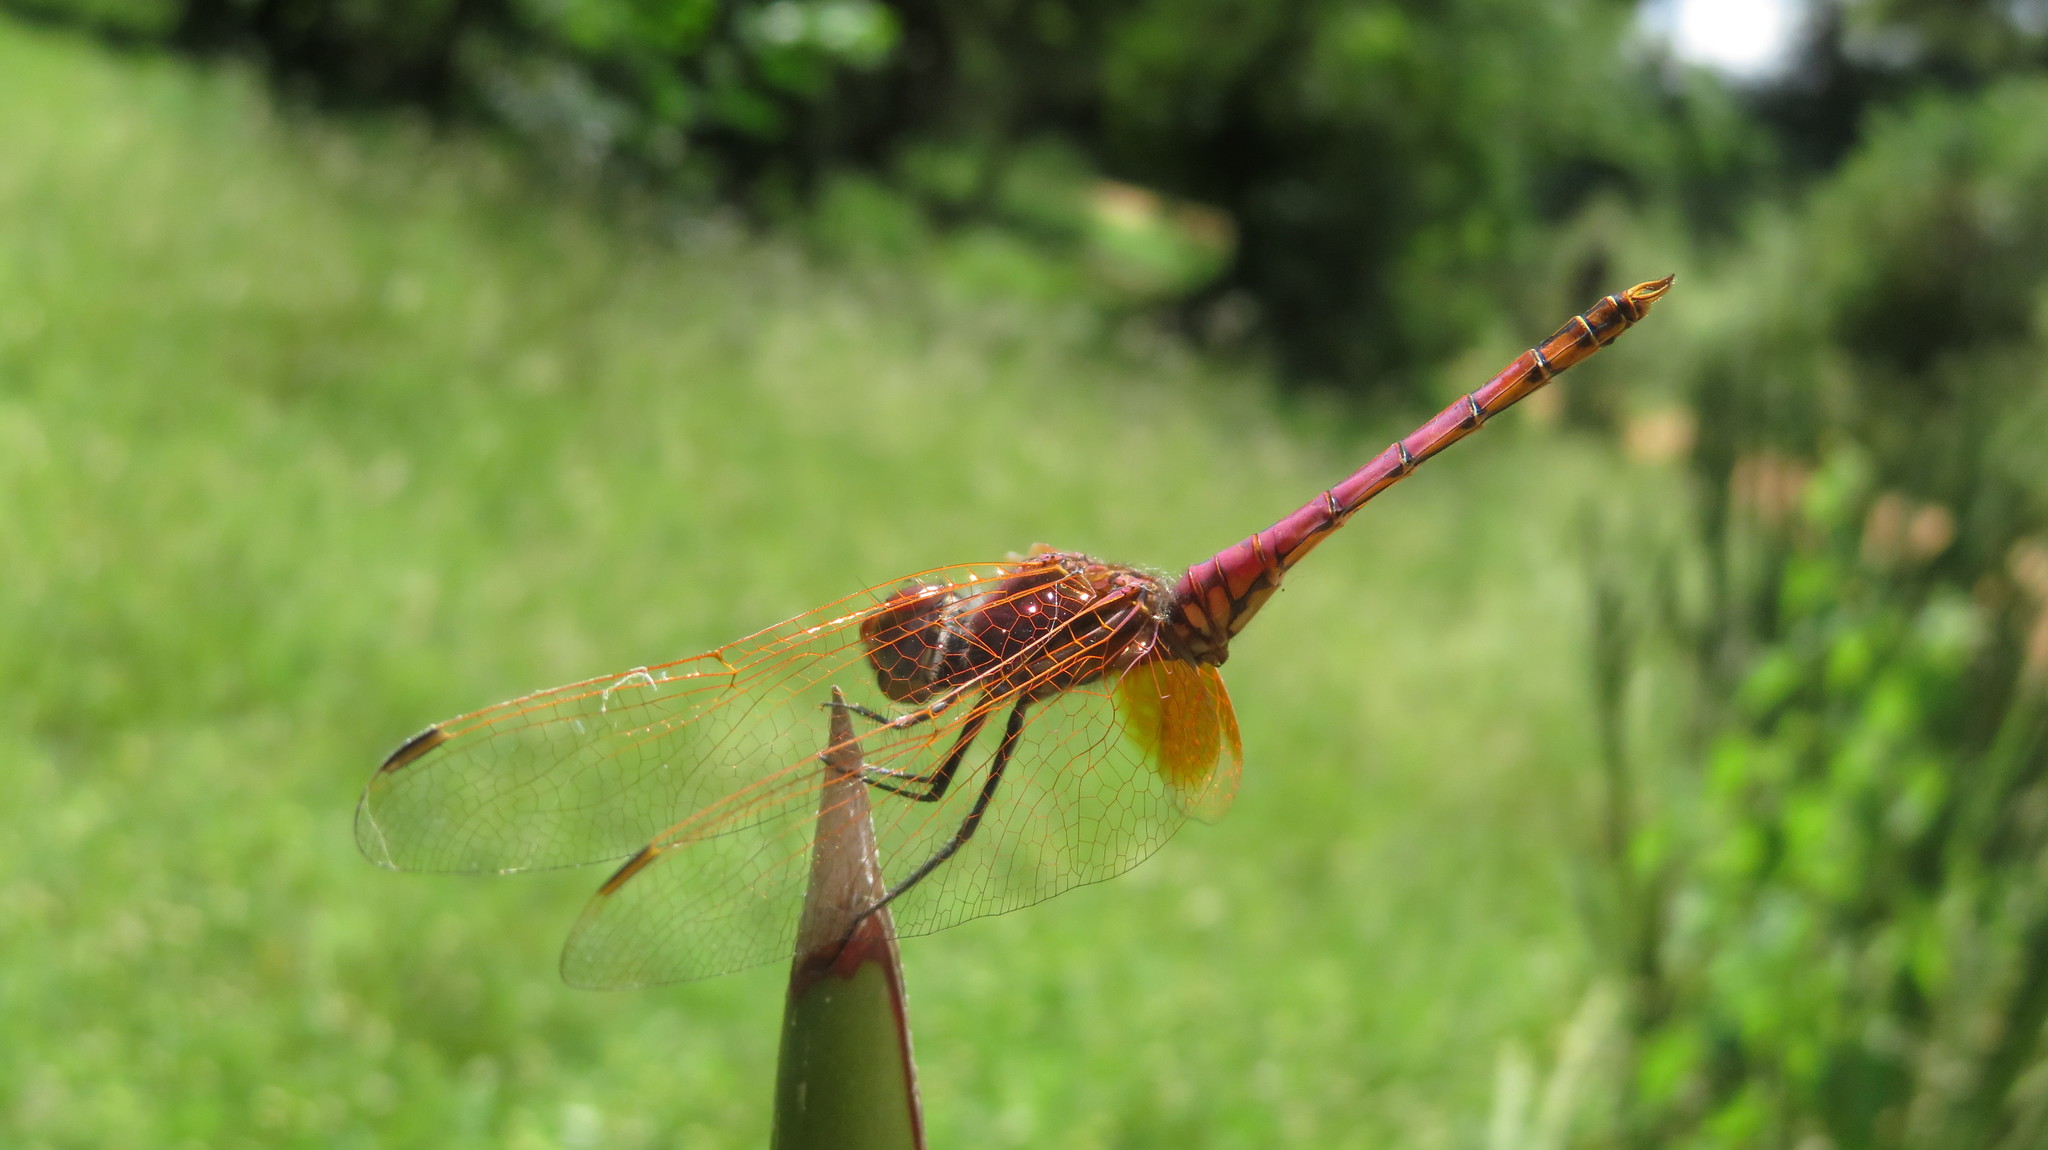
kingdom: Animalia
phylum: Arthropoda
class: Insecta
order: Odonata
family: Libellulidae
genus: Trithemis
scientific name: Trithemis annulata
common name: Violet dropwing
